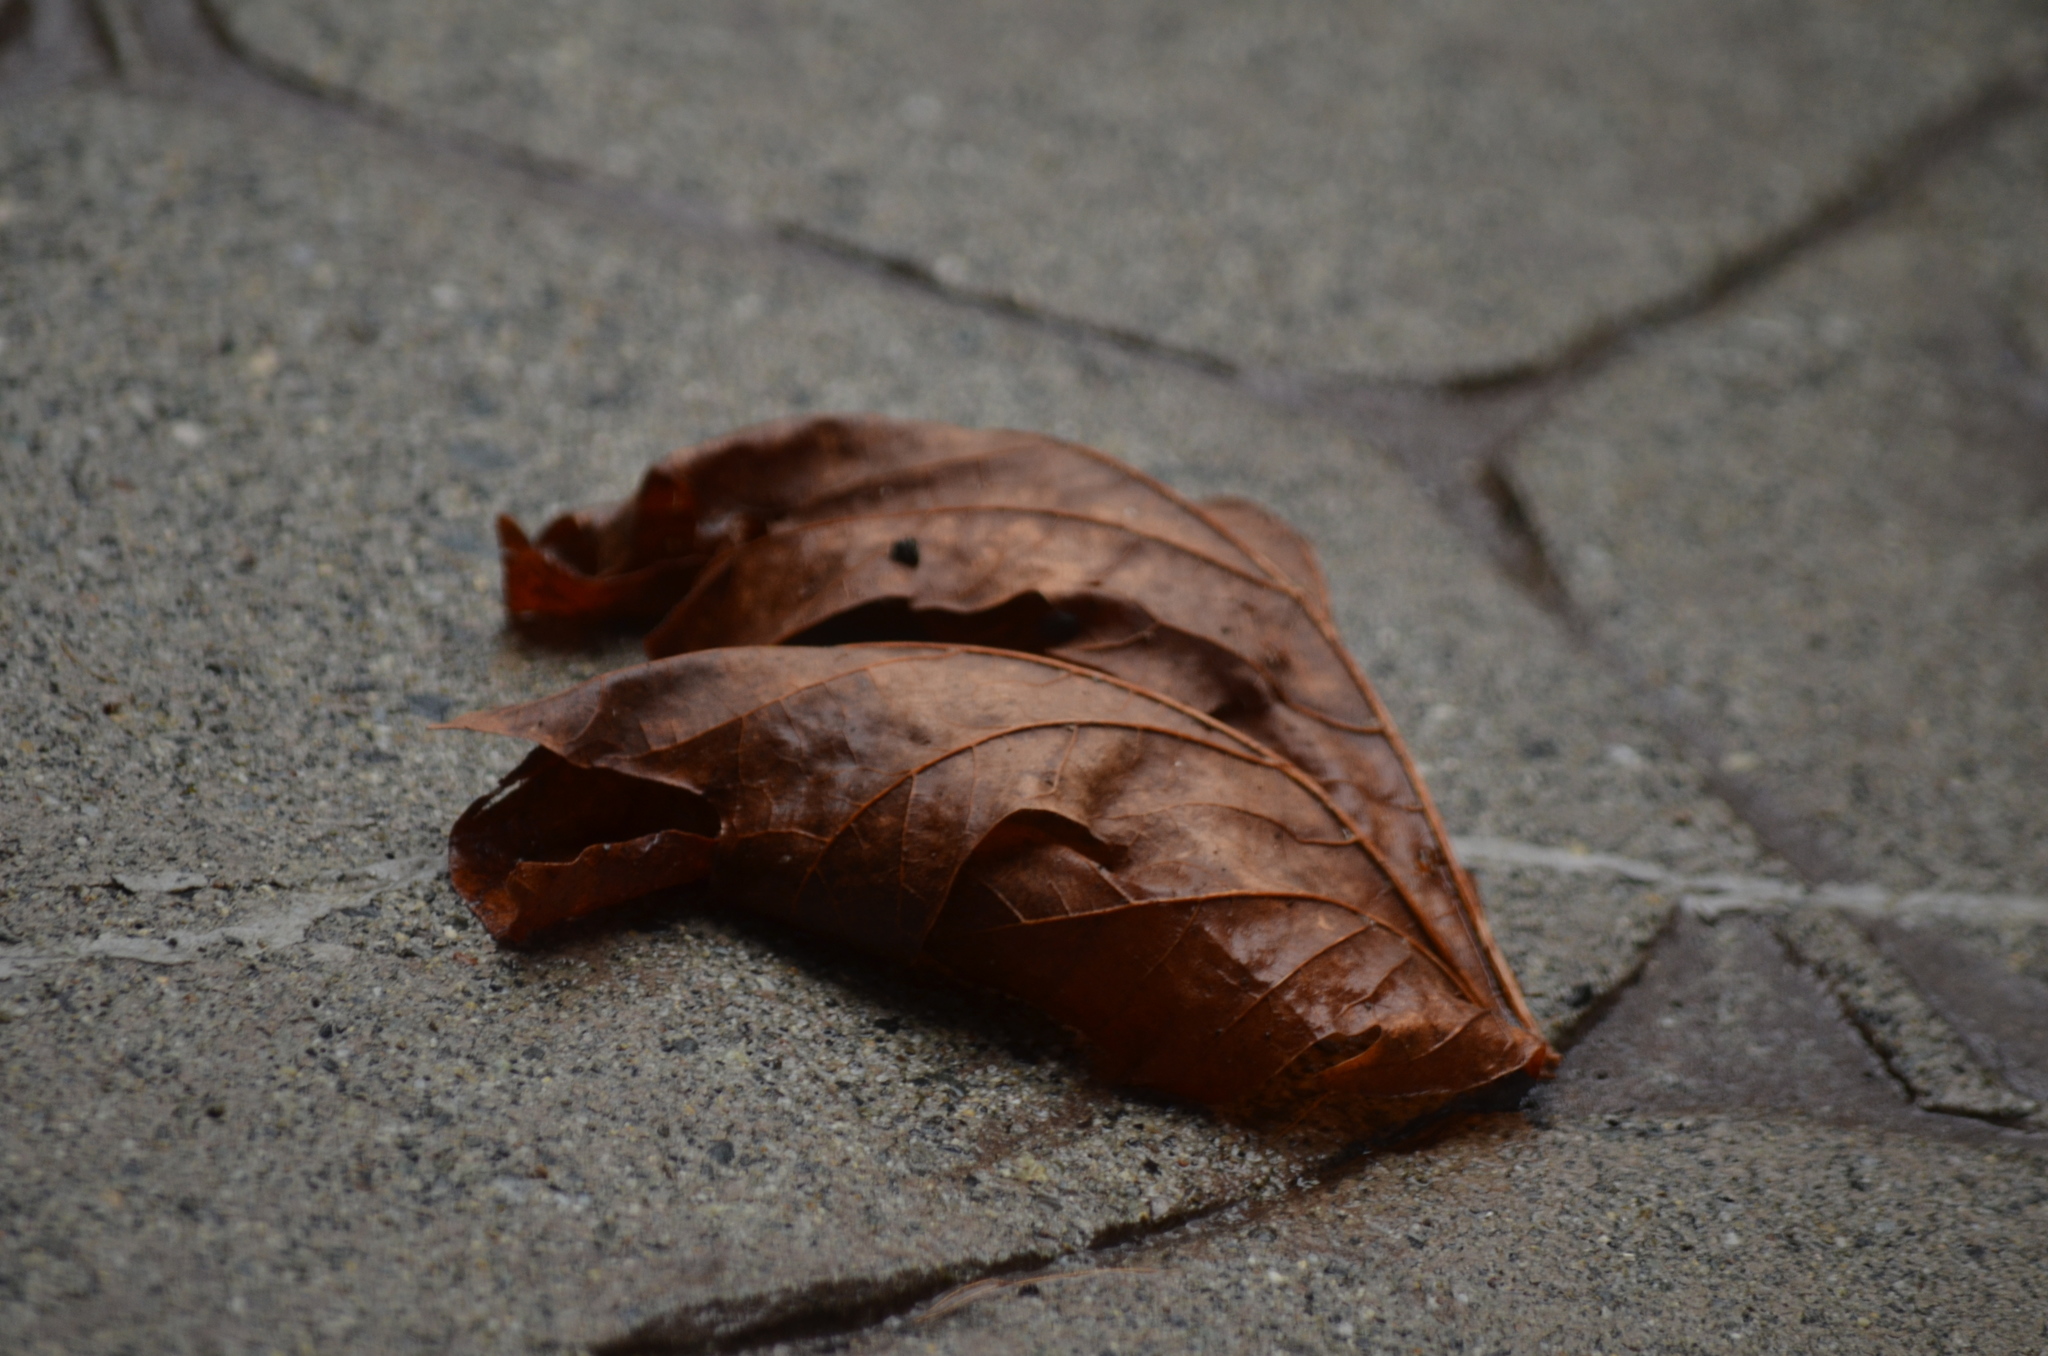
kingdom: Plantae
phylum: Tracheophyta
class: Magnoliopsida
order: Sapindales
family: Sapindaceae
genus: Acer
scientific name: Acer macrophyllum
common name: Oregon maple
